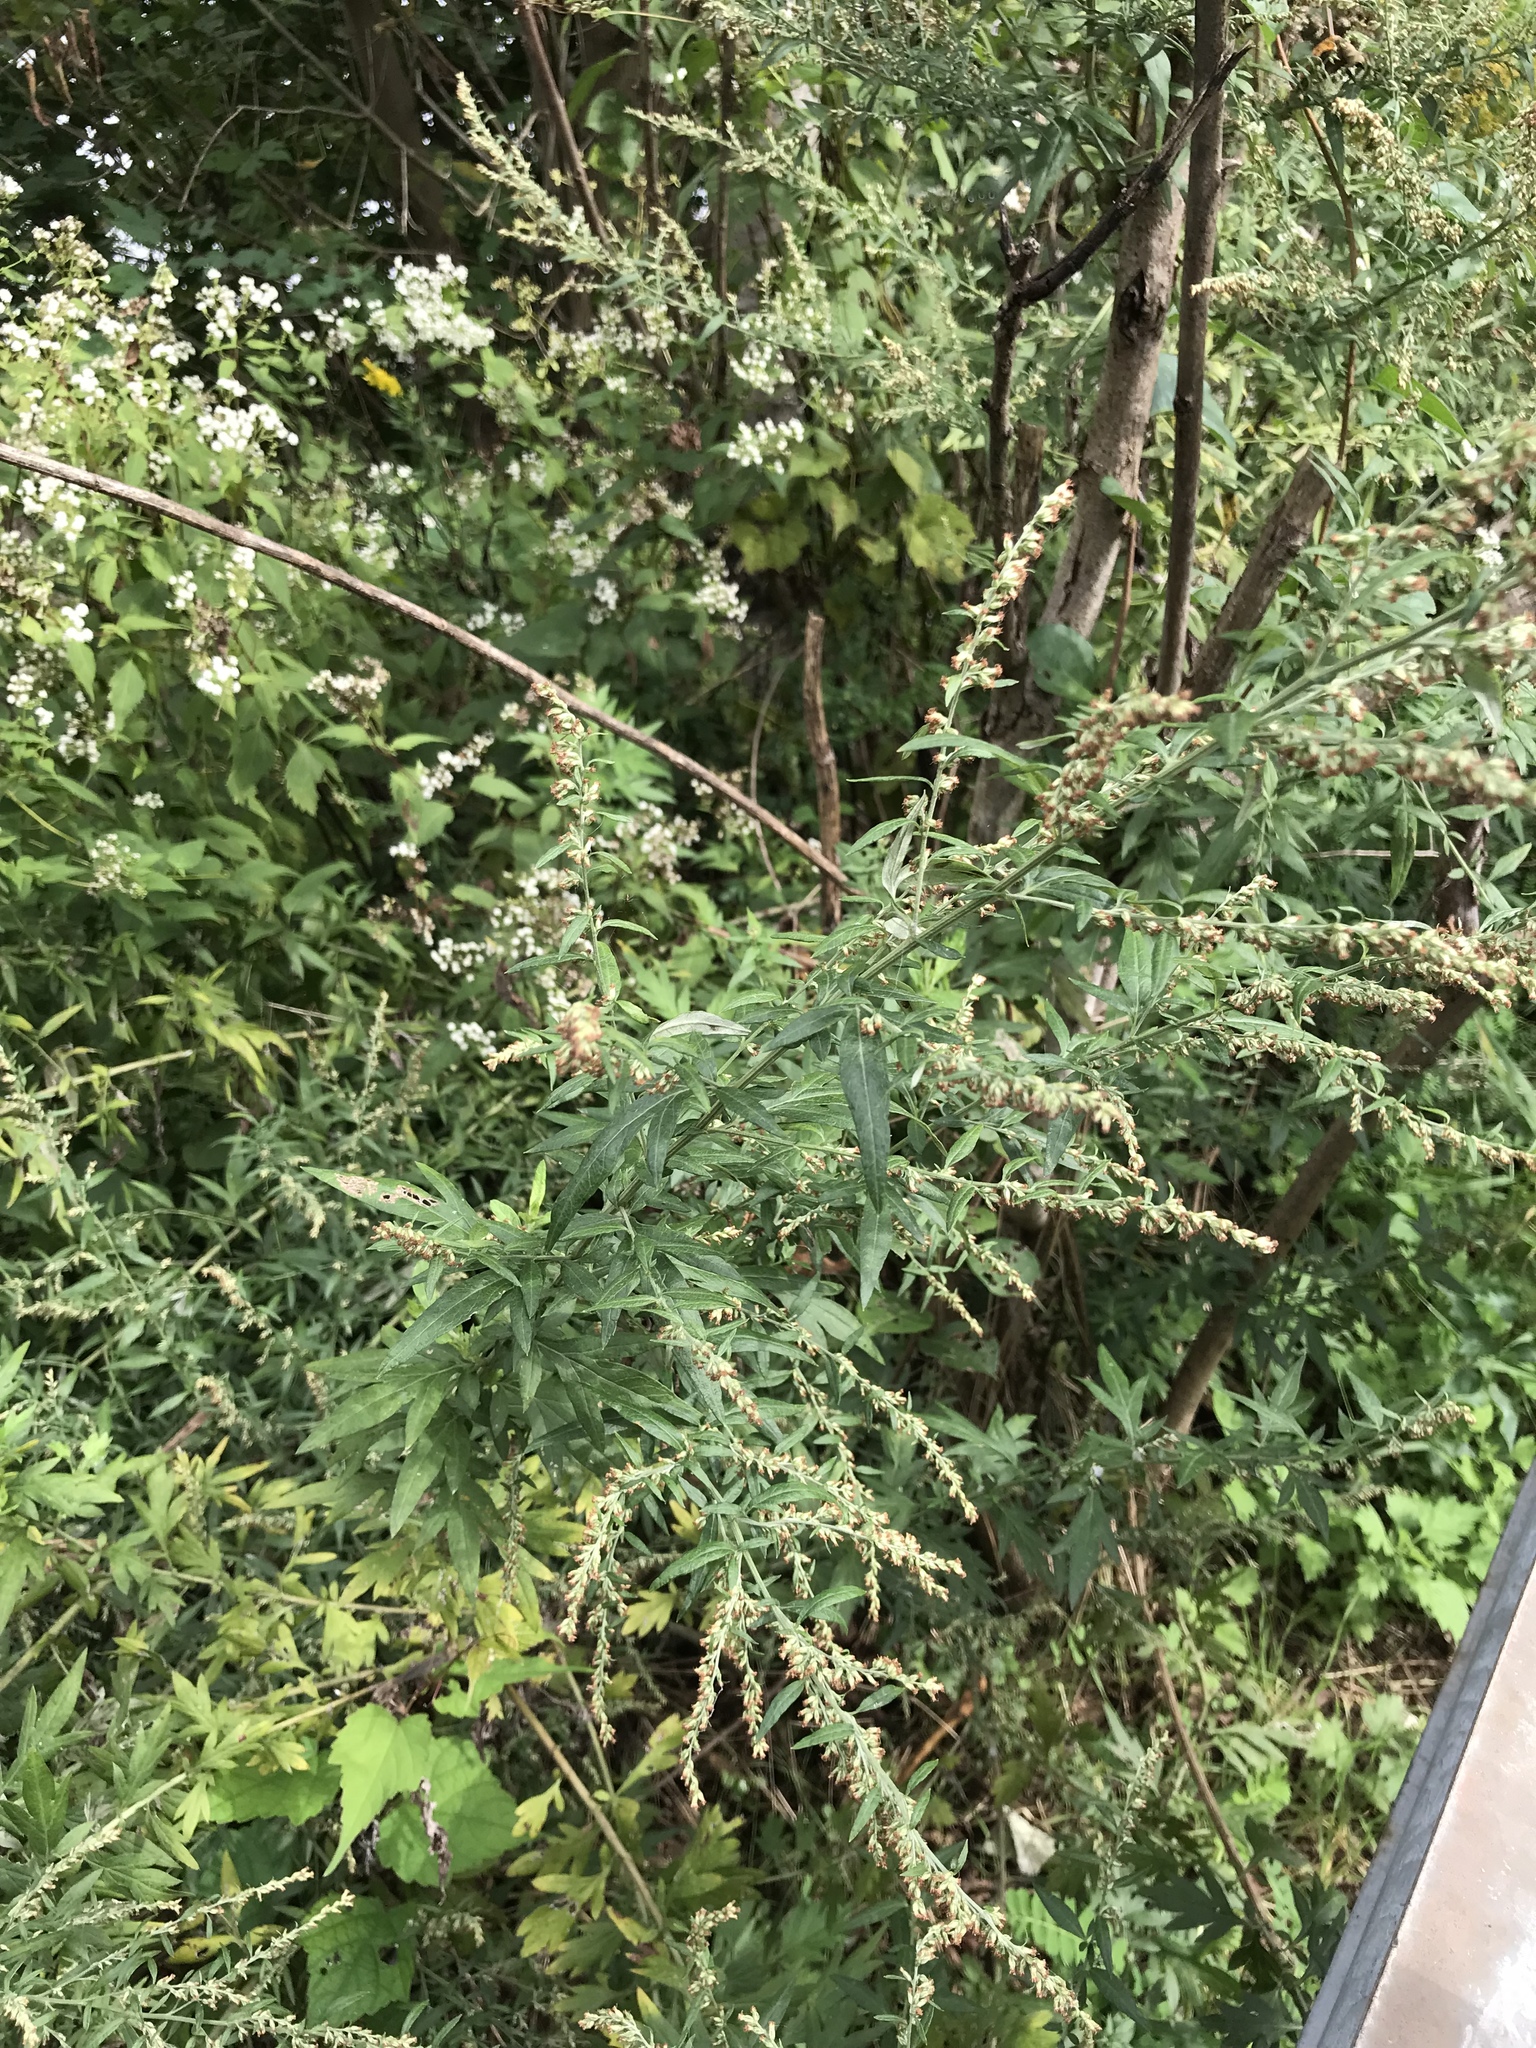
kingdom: Plantae
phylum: Tracheophyta
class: Magnoliopsida
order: Asterales
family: Asteraceae
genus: Artemisia
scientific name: Artemisia vulgaris
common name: Mugwort
